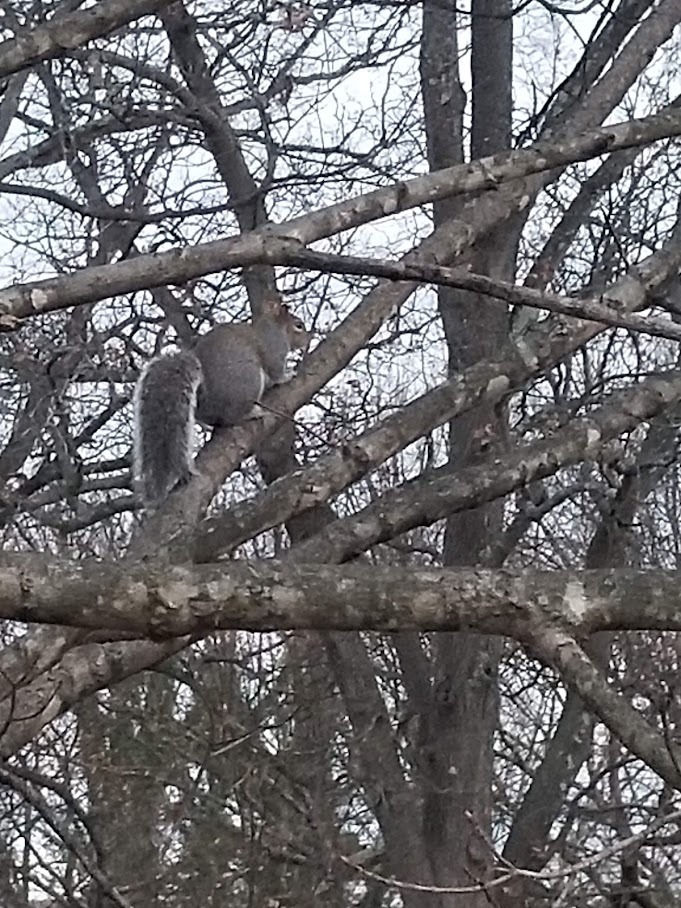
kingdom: Animalia
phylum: Chordata
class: Mammalia
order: Rodentia
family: Sciuridae
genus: Sciurus
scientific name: Sciurus carolinensis
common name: Eastern gray squirrel
